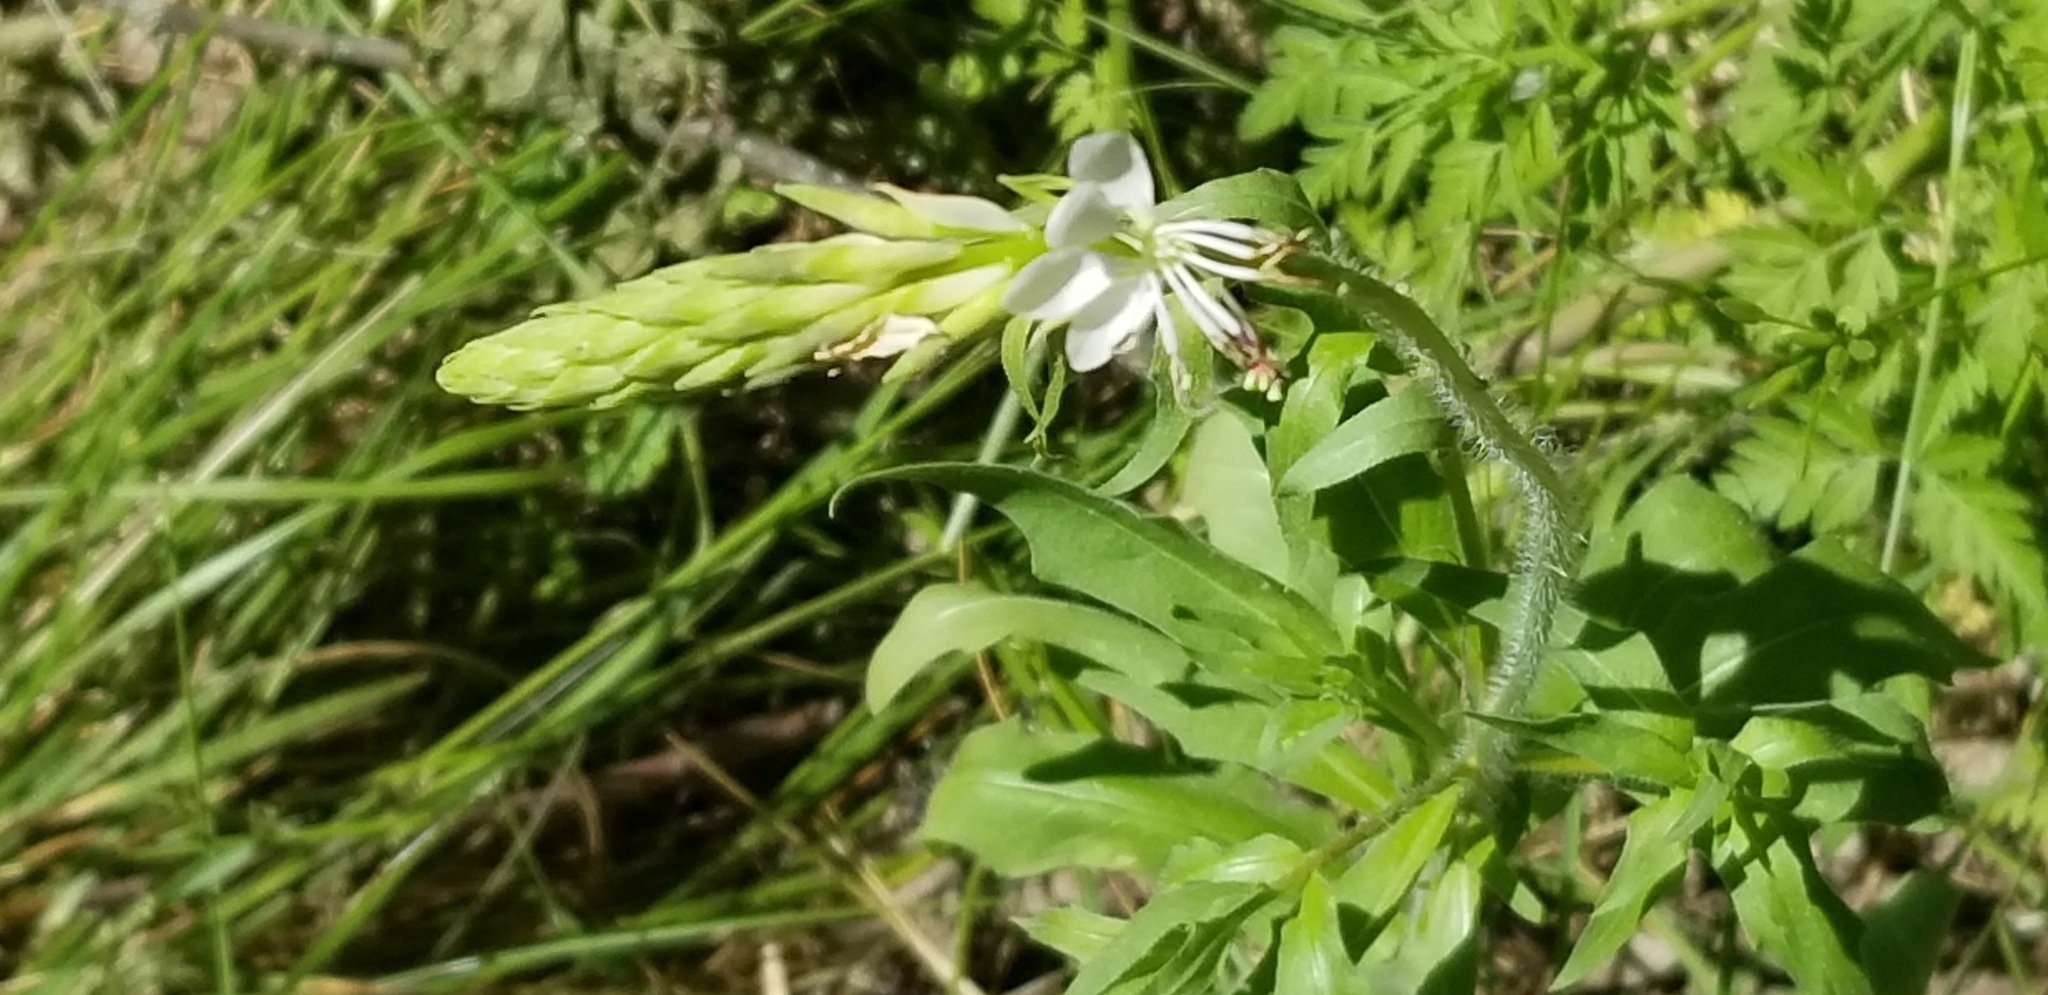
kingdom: Plantae
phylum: Tracheophyta
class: Magnoliopsida
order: Myrtales
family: Onagraceae
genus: Oenothera
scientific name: Oenothera suffulta
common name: Kisses
